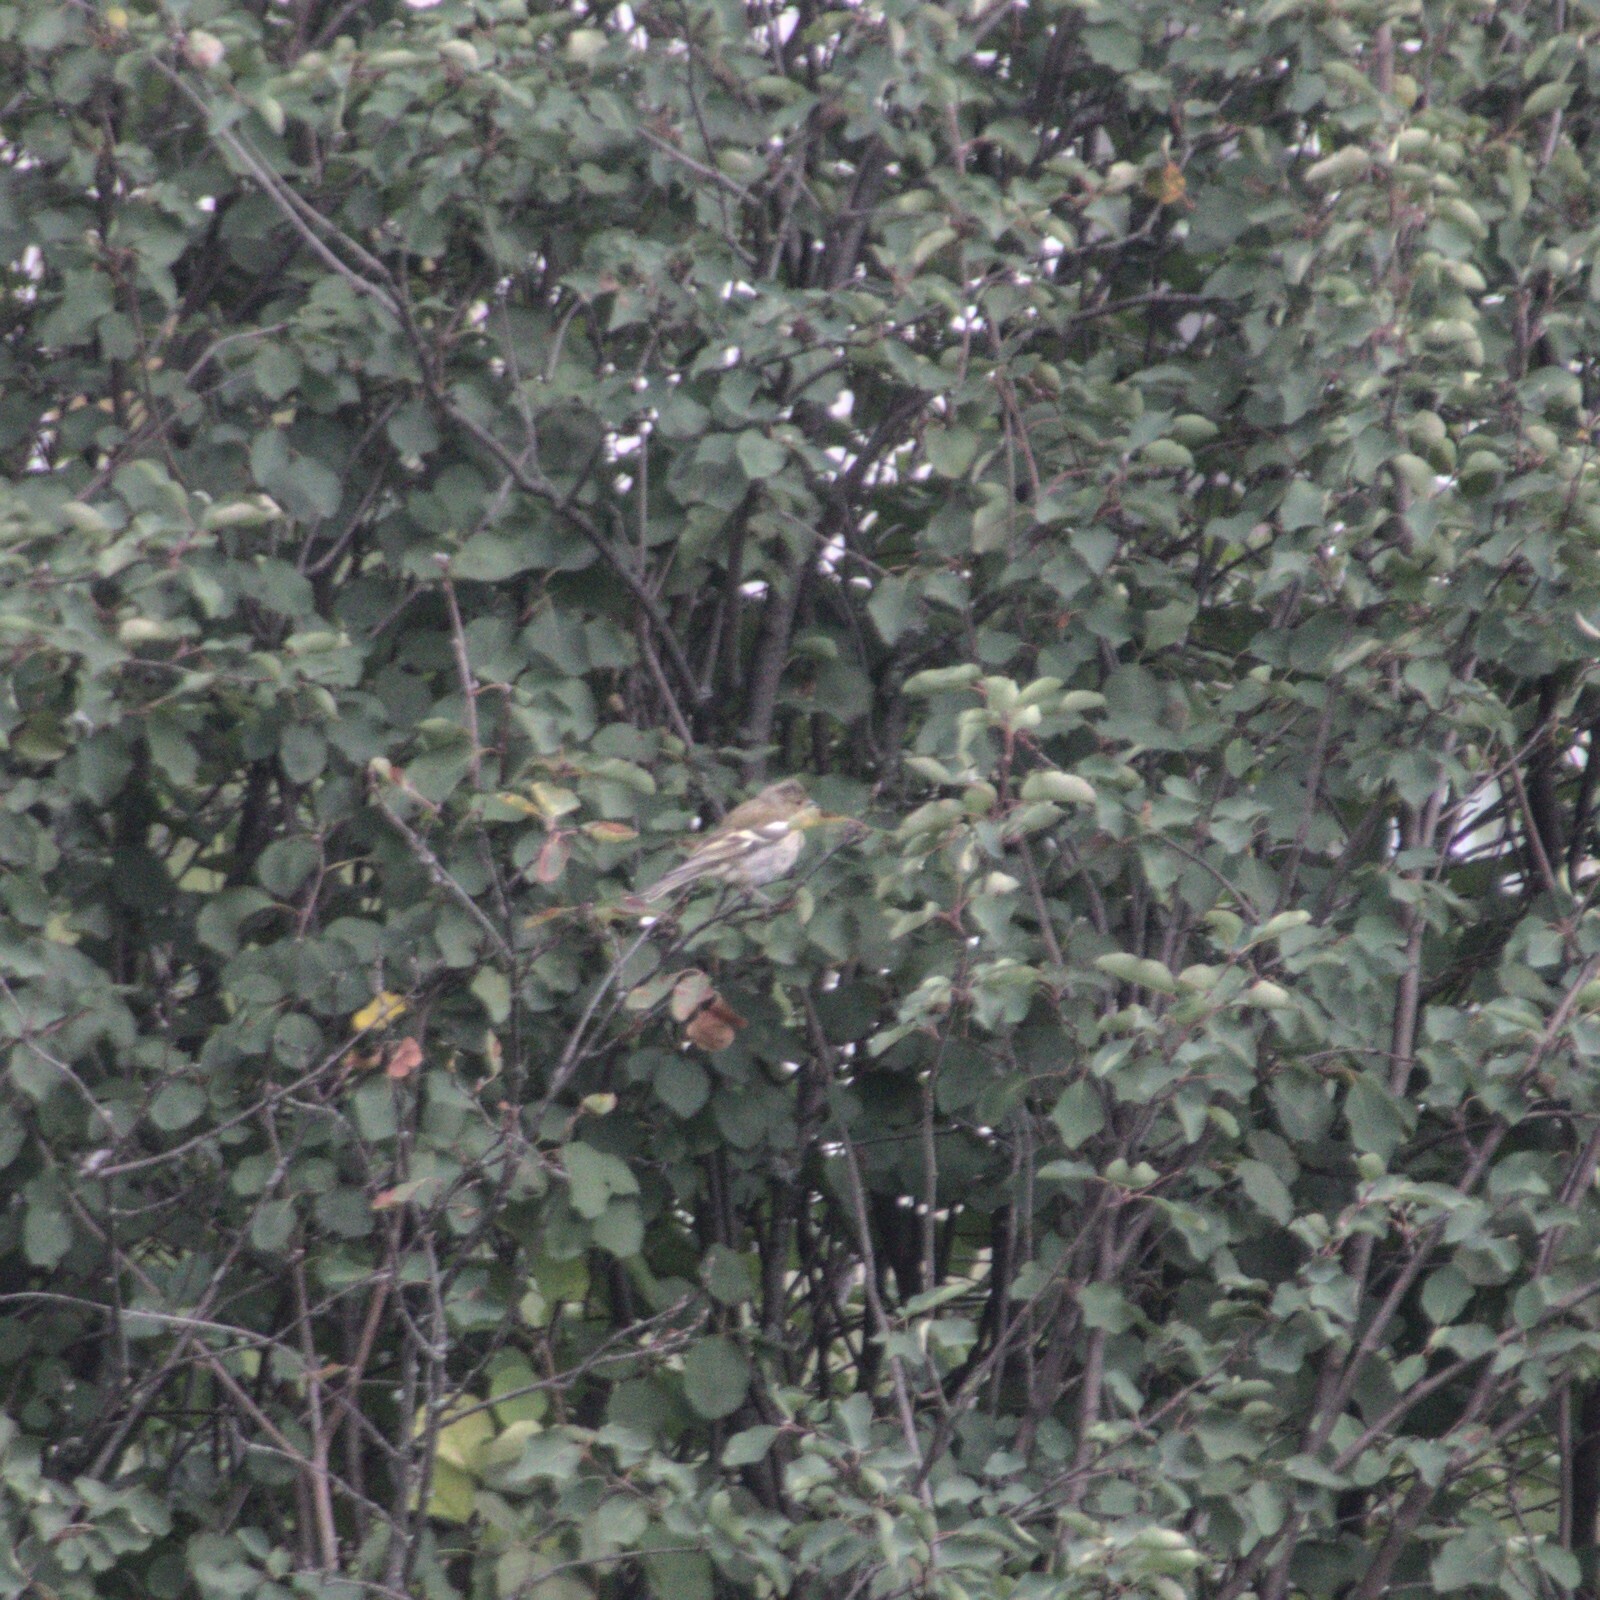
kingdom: Animalia
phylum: Chordata
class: Aves
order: Passeriformes
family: Fringillidae
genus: Fringilla
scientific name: Fringilla coelebs
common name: Common chaffinch
